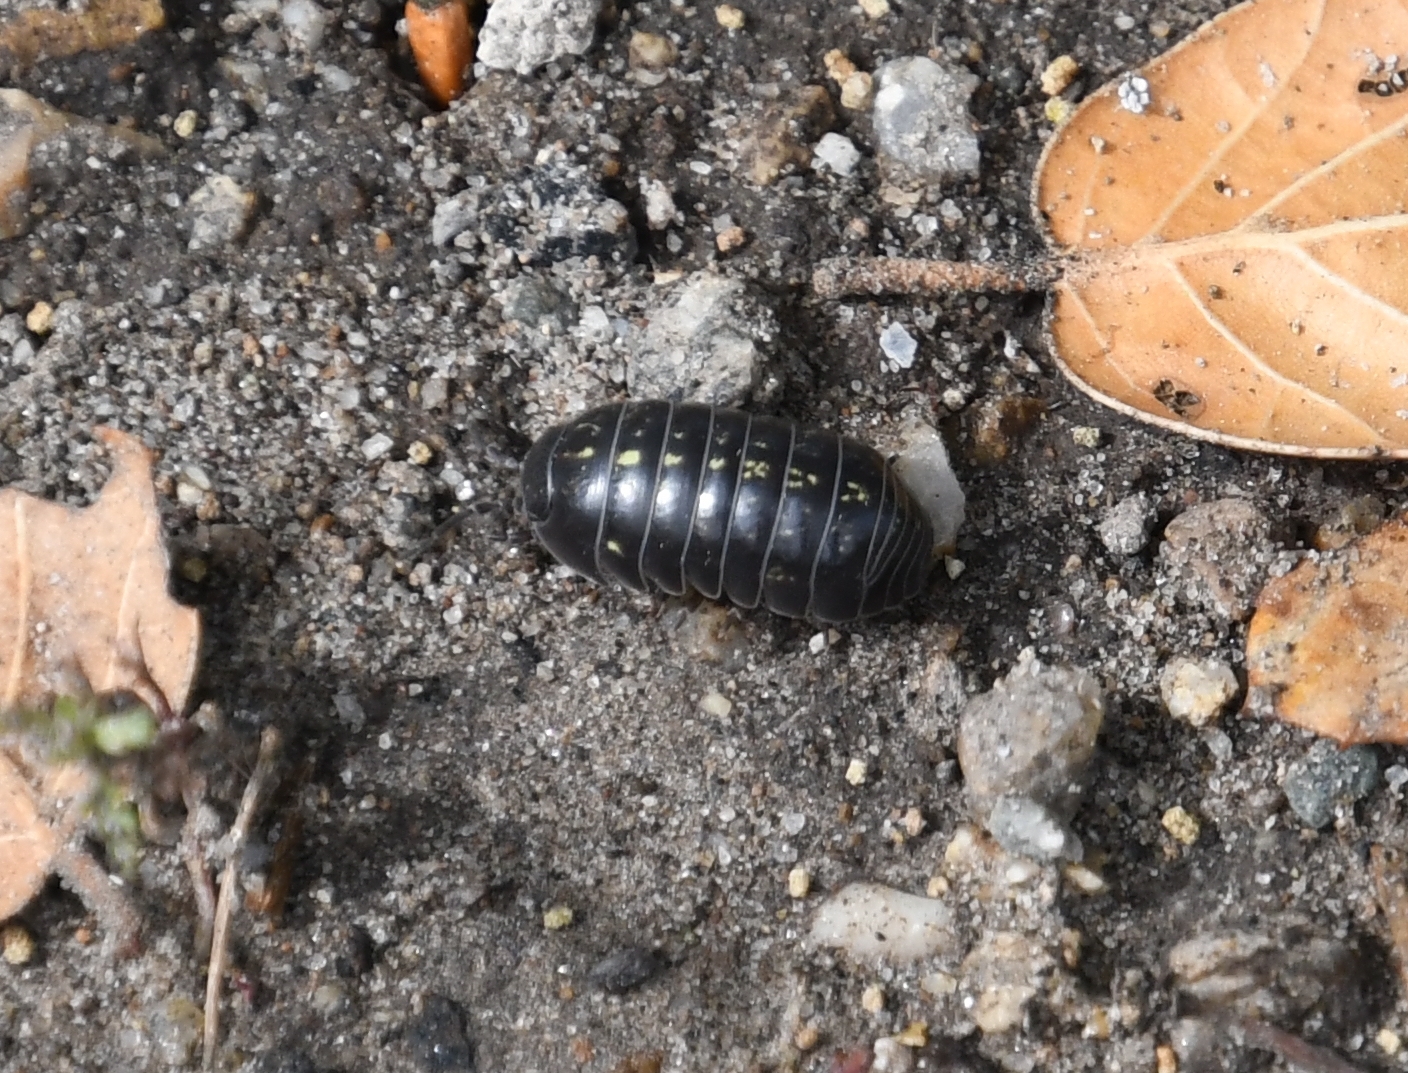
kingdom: Animalia
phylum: Arthropoda
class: Malacostraca
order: Isopoda
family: Armadillidiidae
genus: Armadillidium
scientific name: Armadillidium vulgare
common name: Common pill woodlouse
